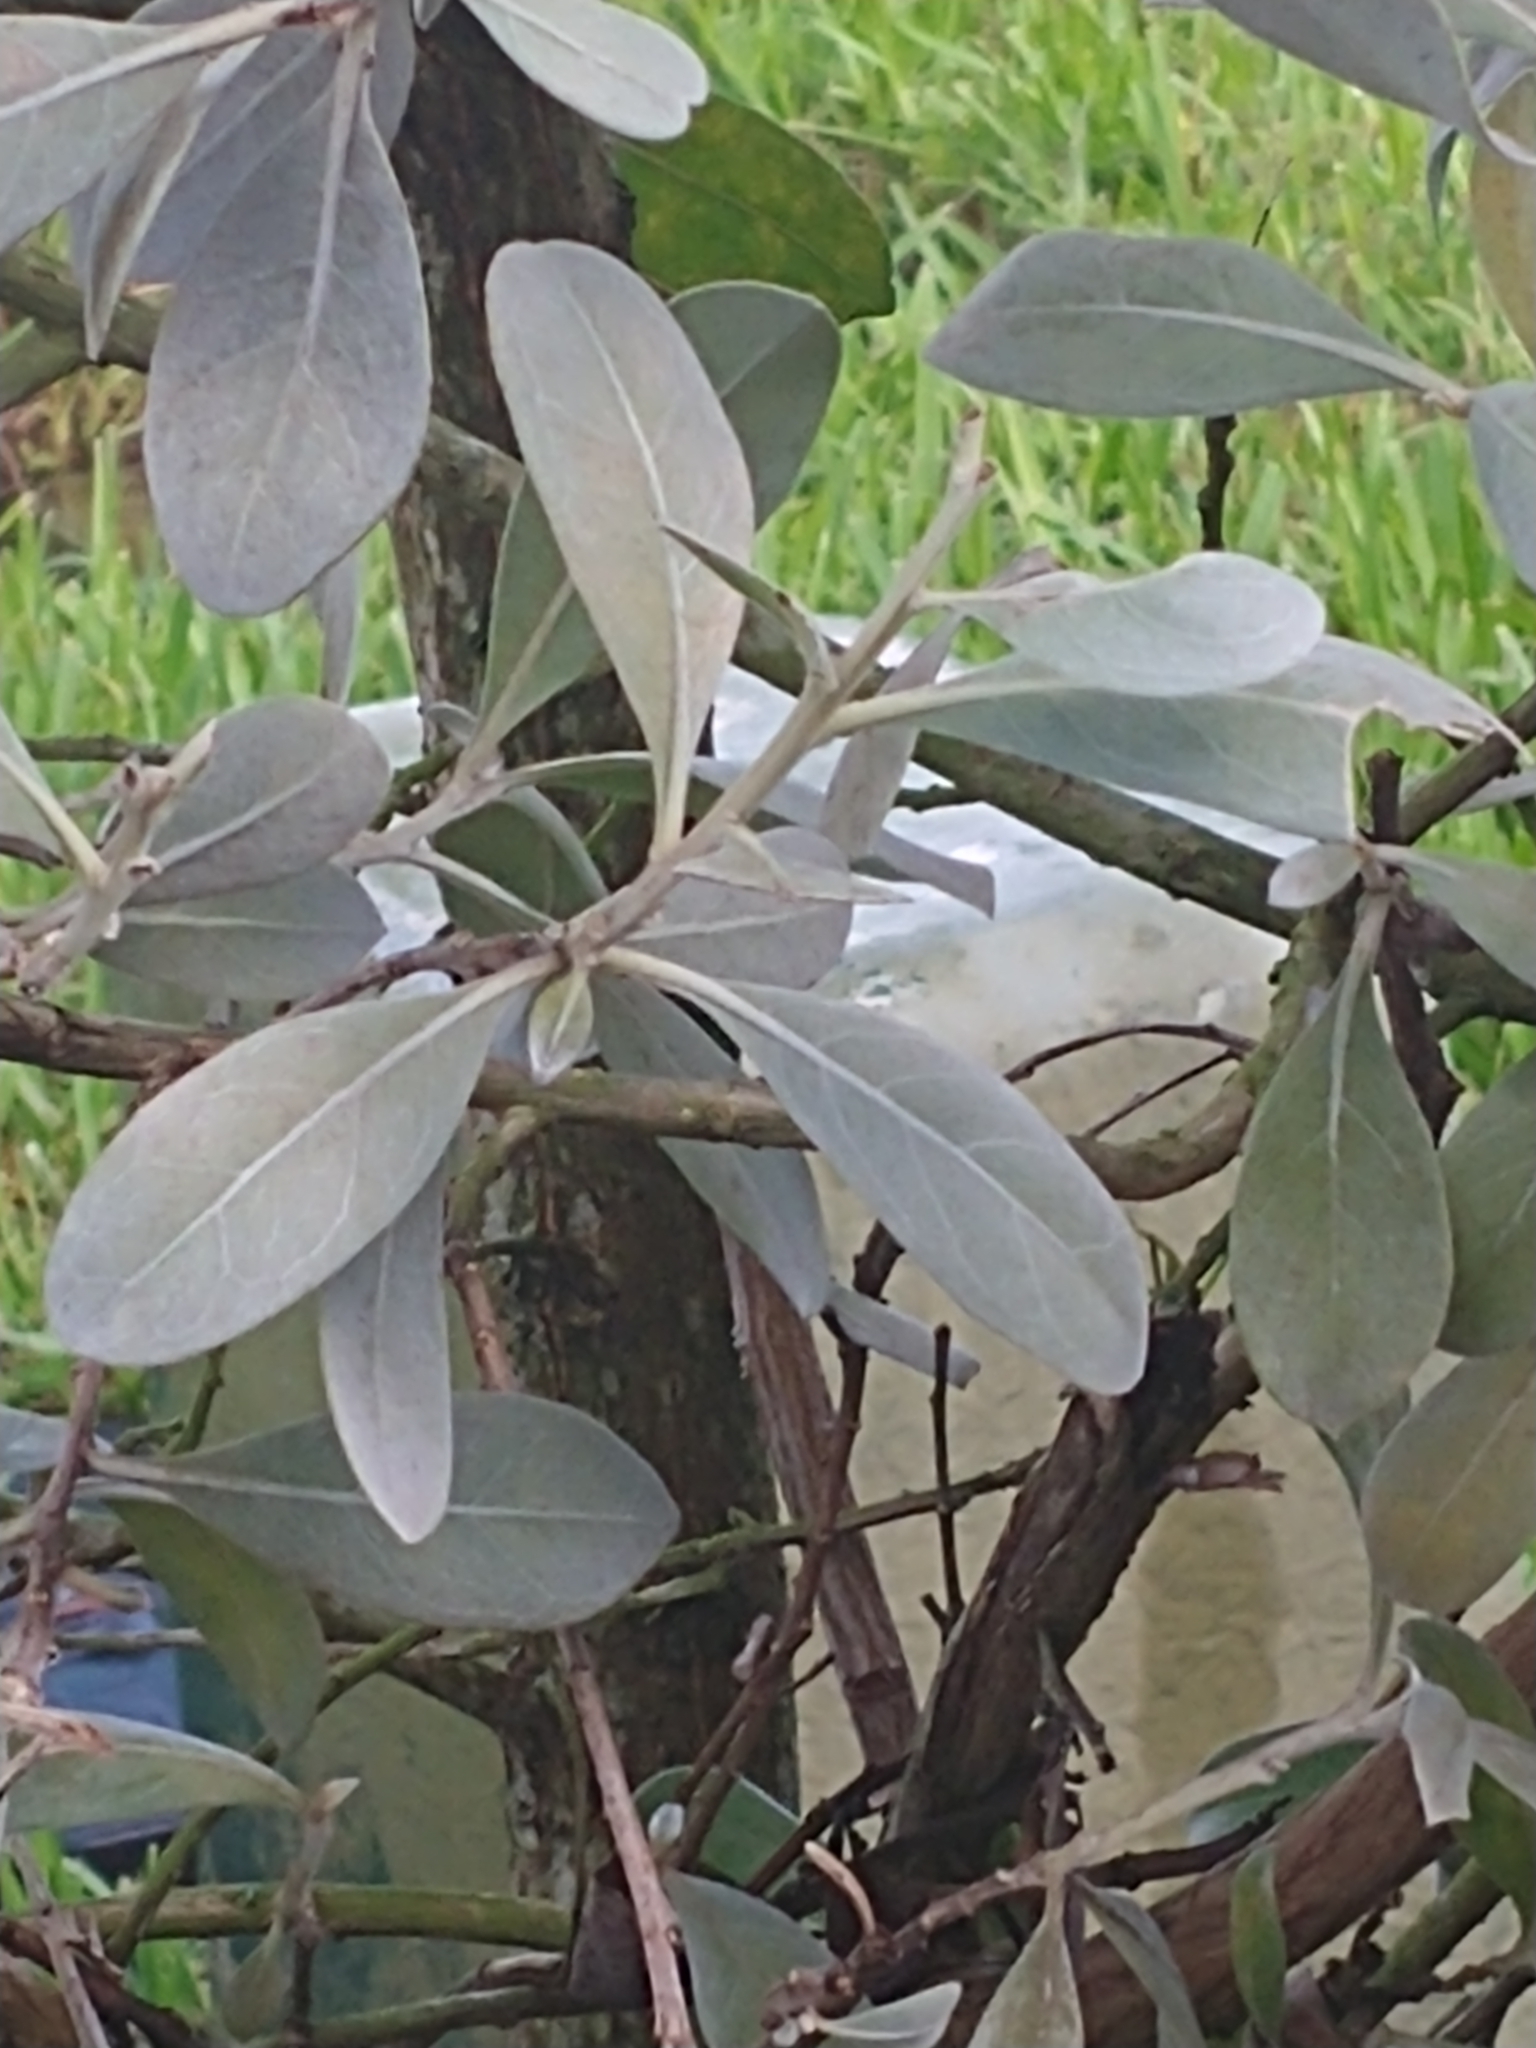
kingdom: Plantae
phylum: Tracheophyta
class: Magnoliopsida
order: Myrtales
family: Combretaceae
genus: Conocarpus
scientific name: Conocarpus erectus
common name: Button mangrove
